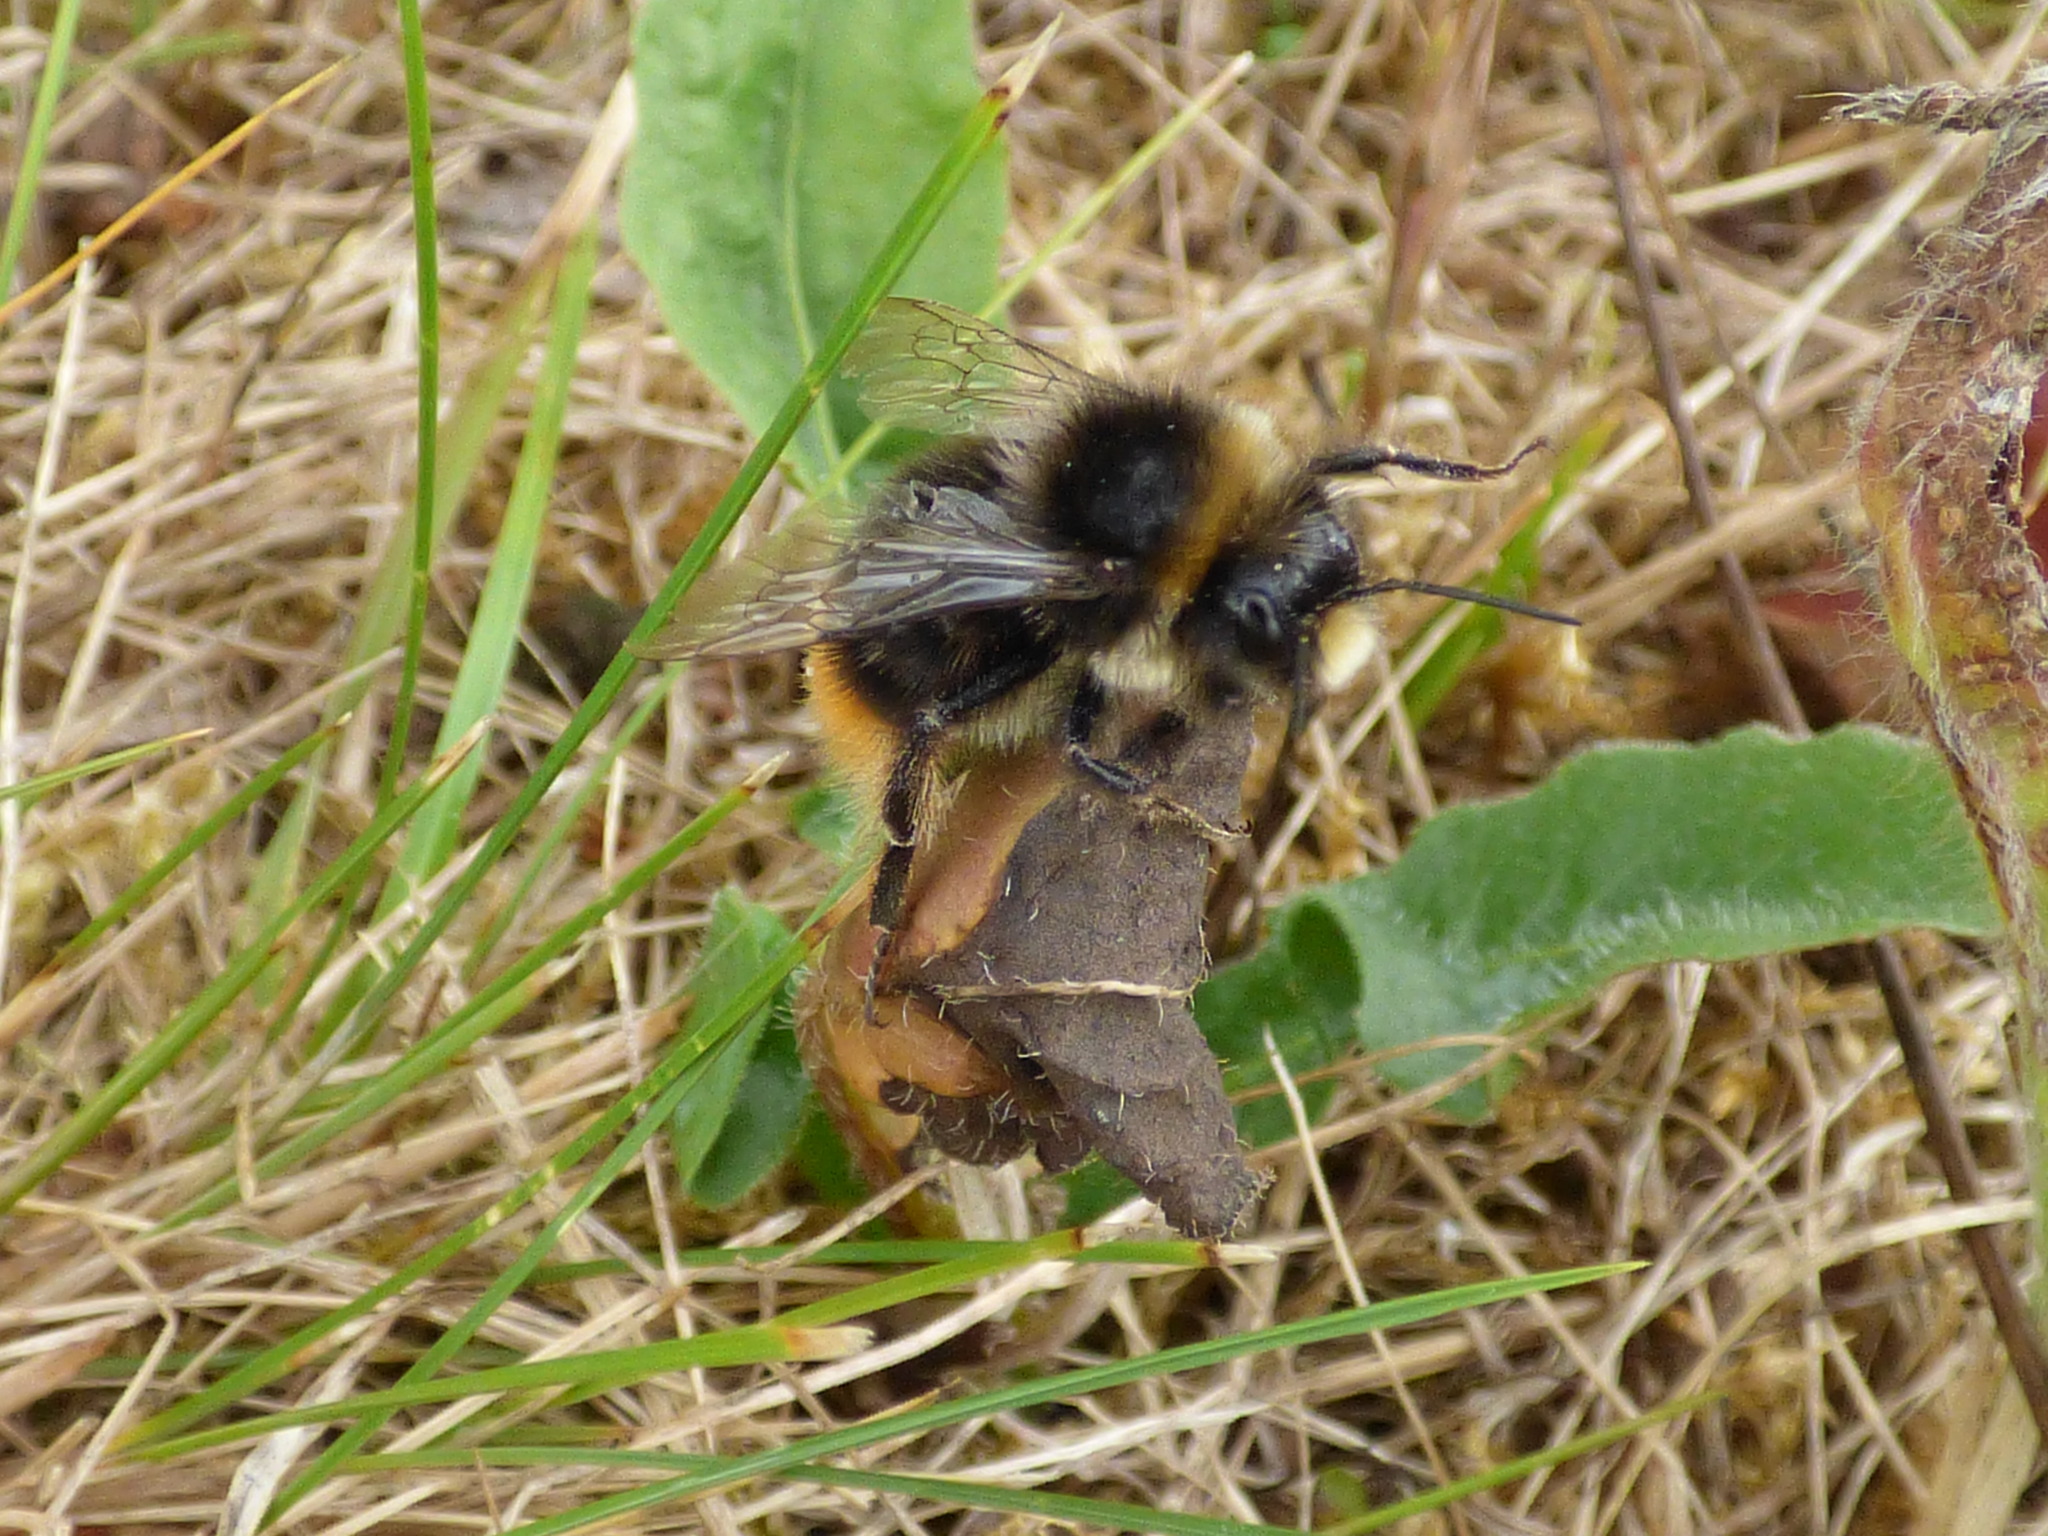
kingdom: Animalia
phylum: Arthropoda
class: Insecta
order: Hymenoptera
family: Apidae
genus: Bombus
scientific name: Bombus lapidarius
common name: Large red-tailed humble-bee
